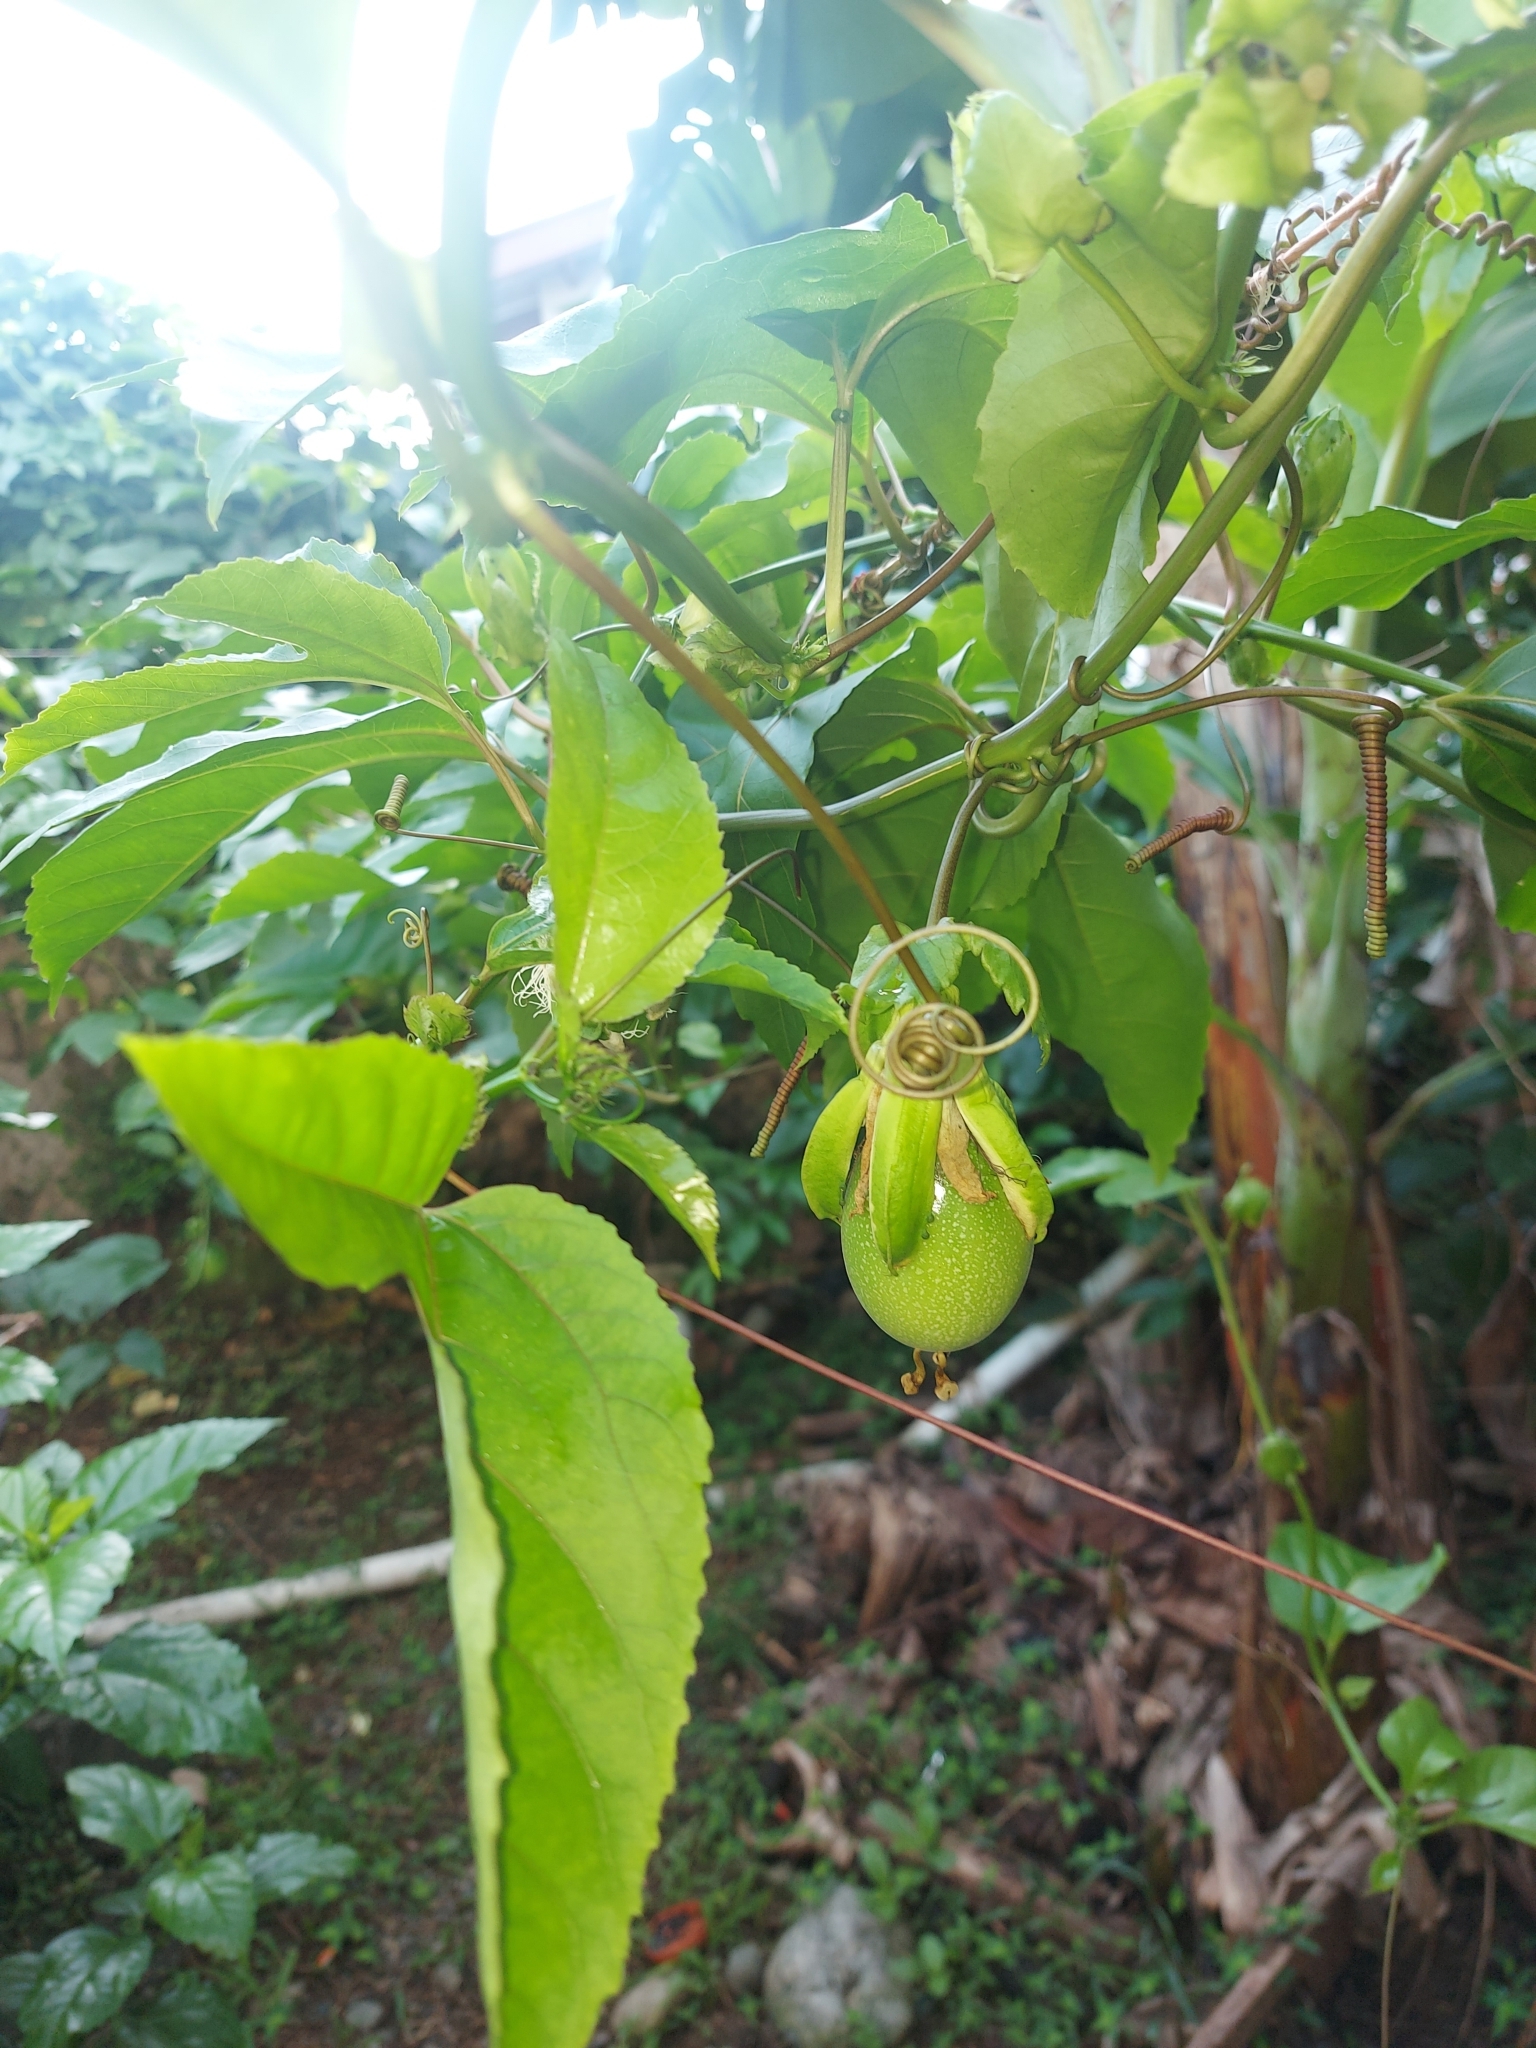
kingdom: Plantae
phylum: Tracheophyta
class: Magnoliopsida
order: Malpighiales
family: Passifloraceae
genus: Passiflora
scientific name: Passiflora edulis
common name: Purple granadilla
